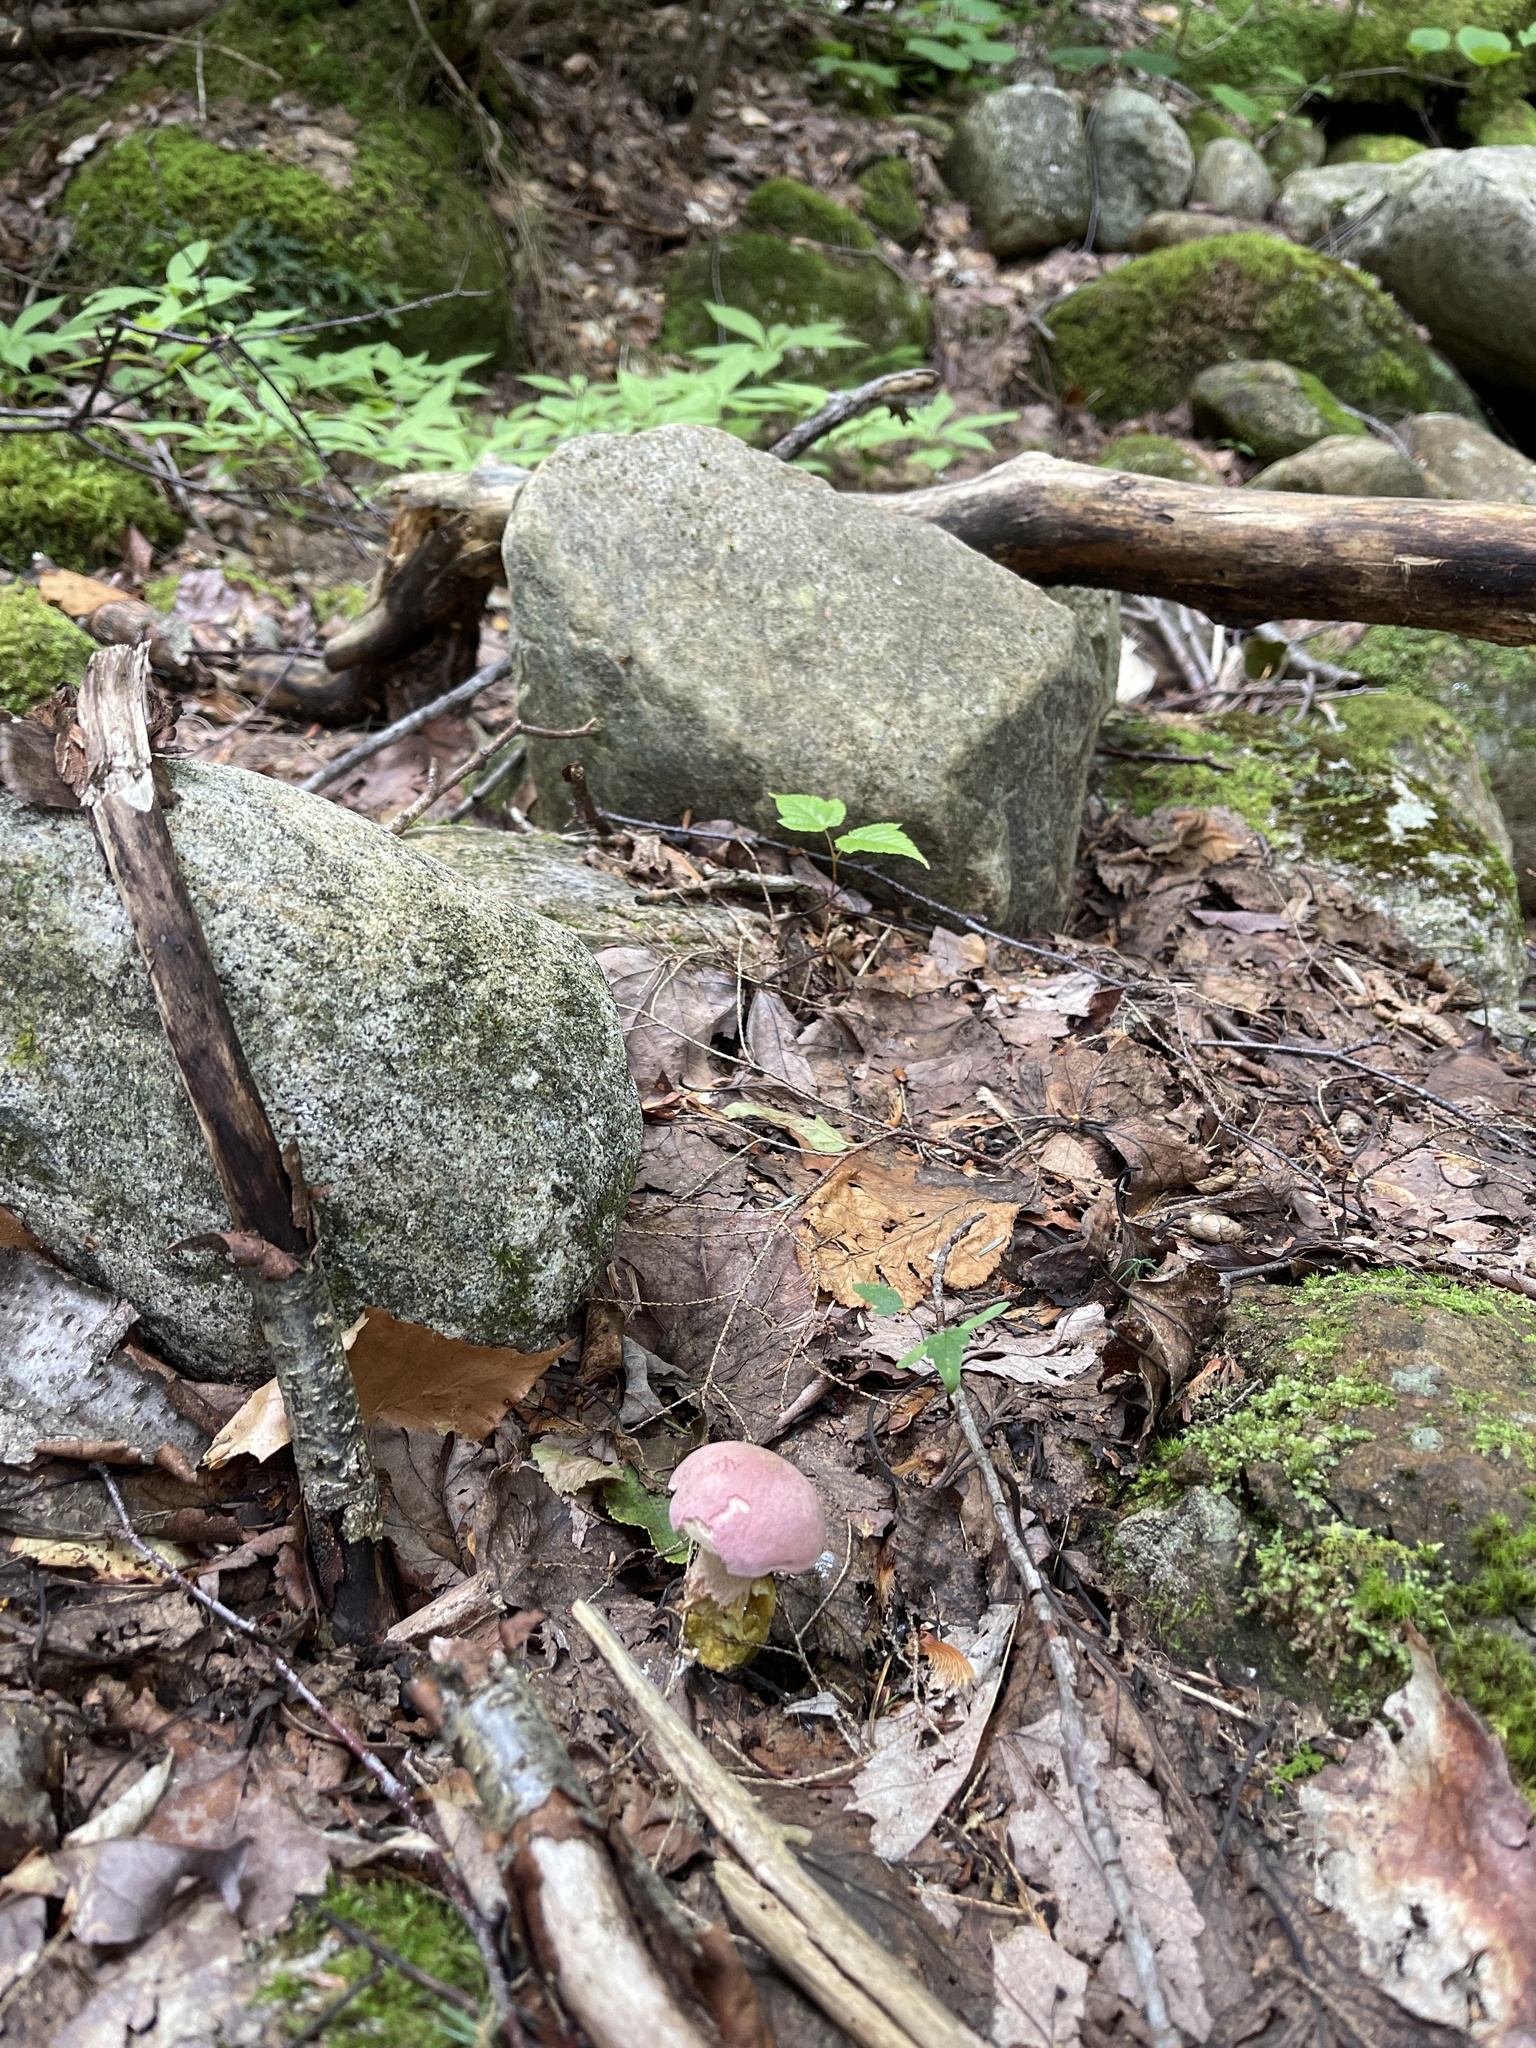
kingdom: Fungi
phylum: Basidiomycota
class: Agaricomycetes
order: Boletales
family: Boletaceae
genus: Harrya
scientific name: Harrya chromipes
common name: Chrome-footed bolete
